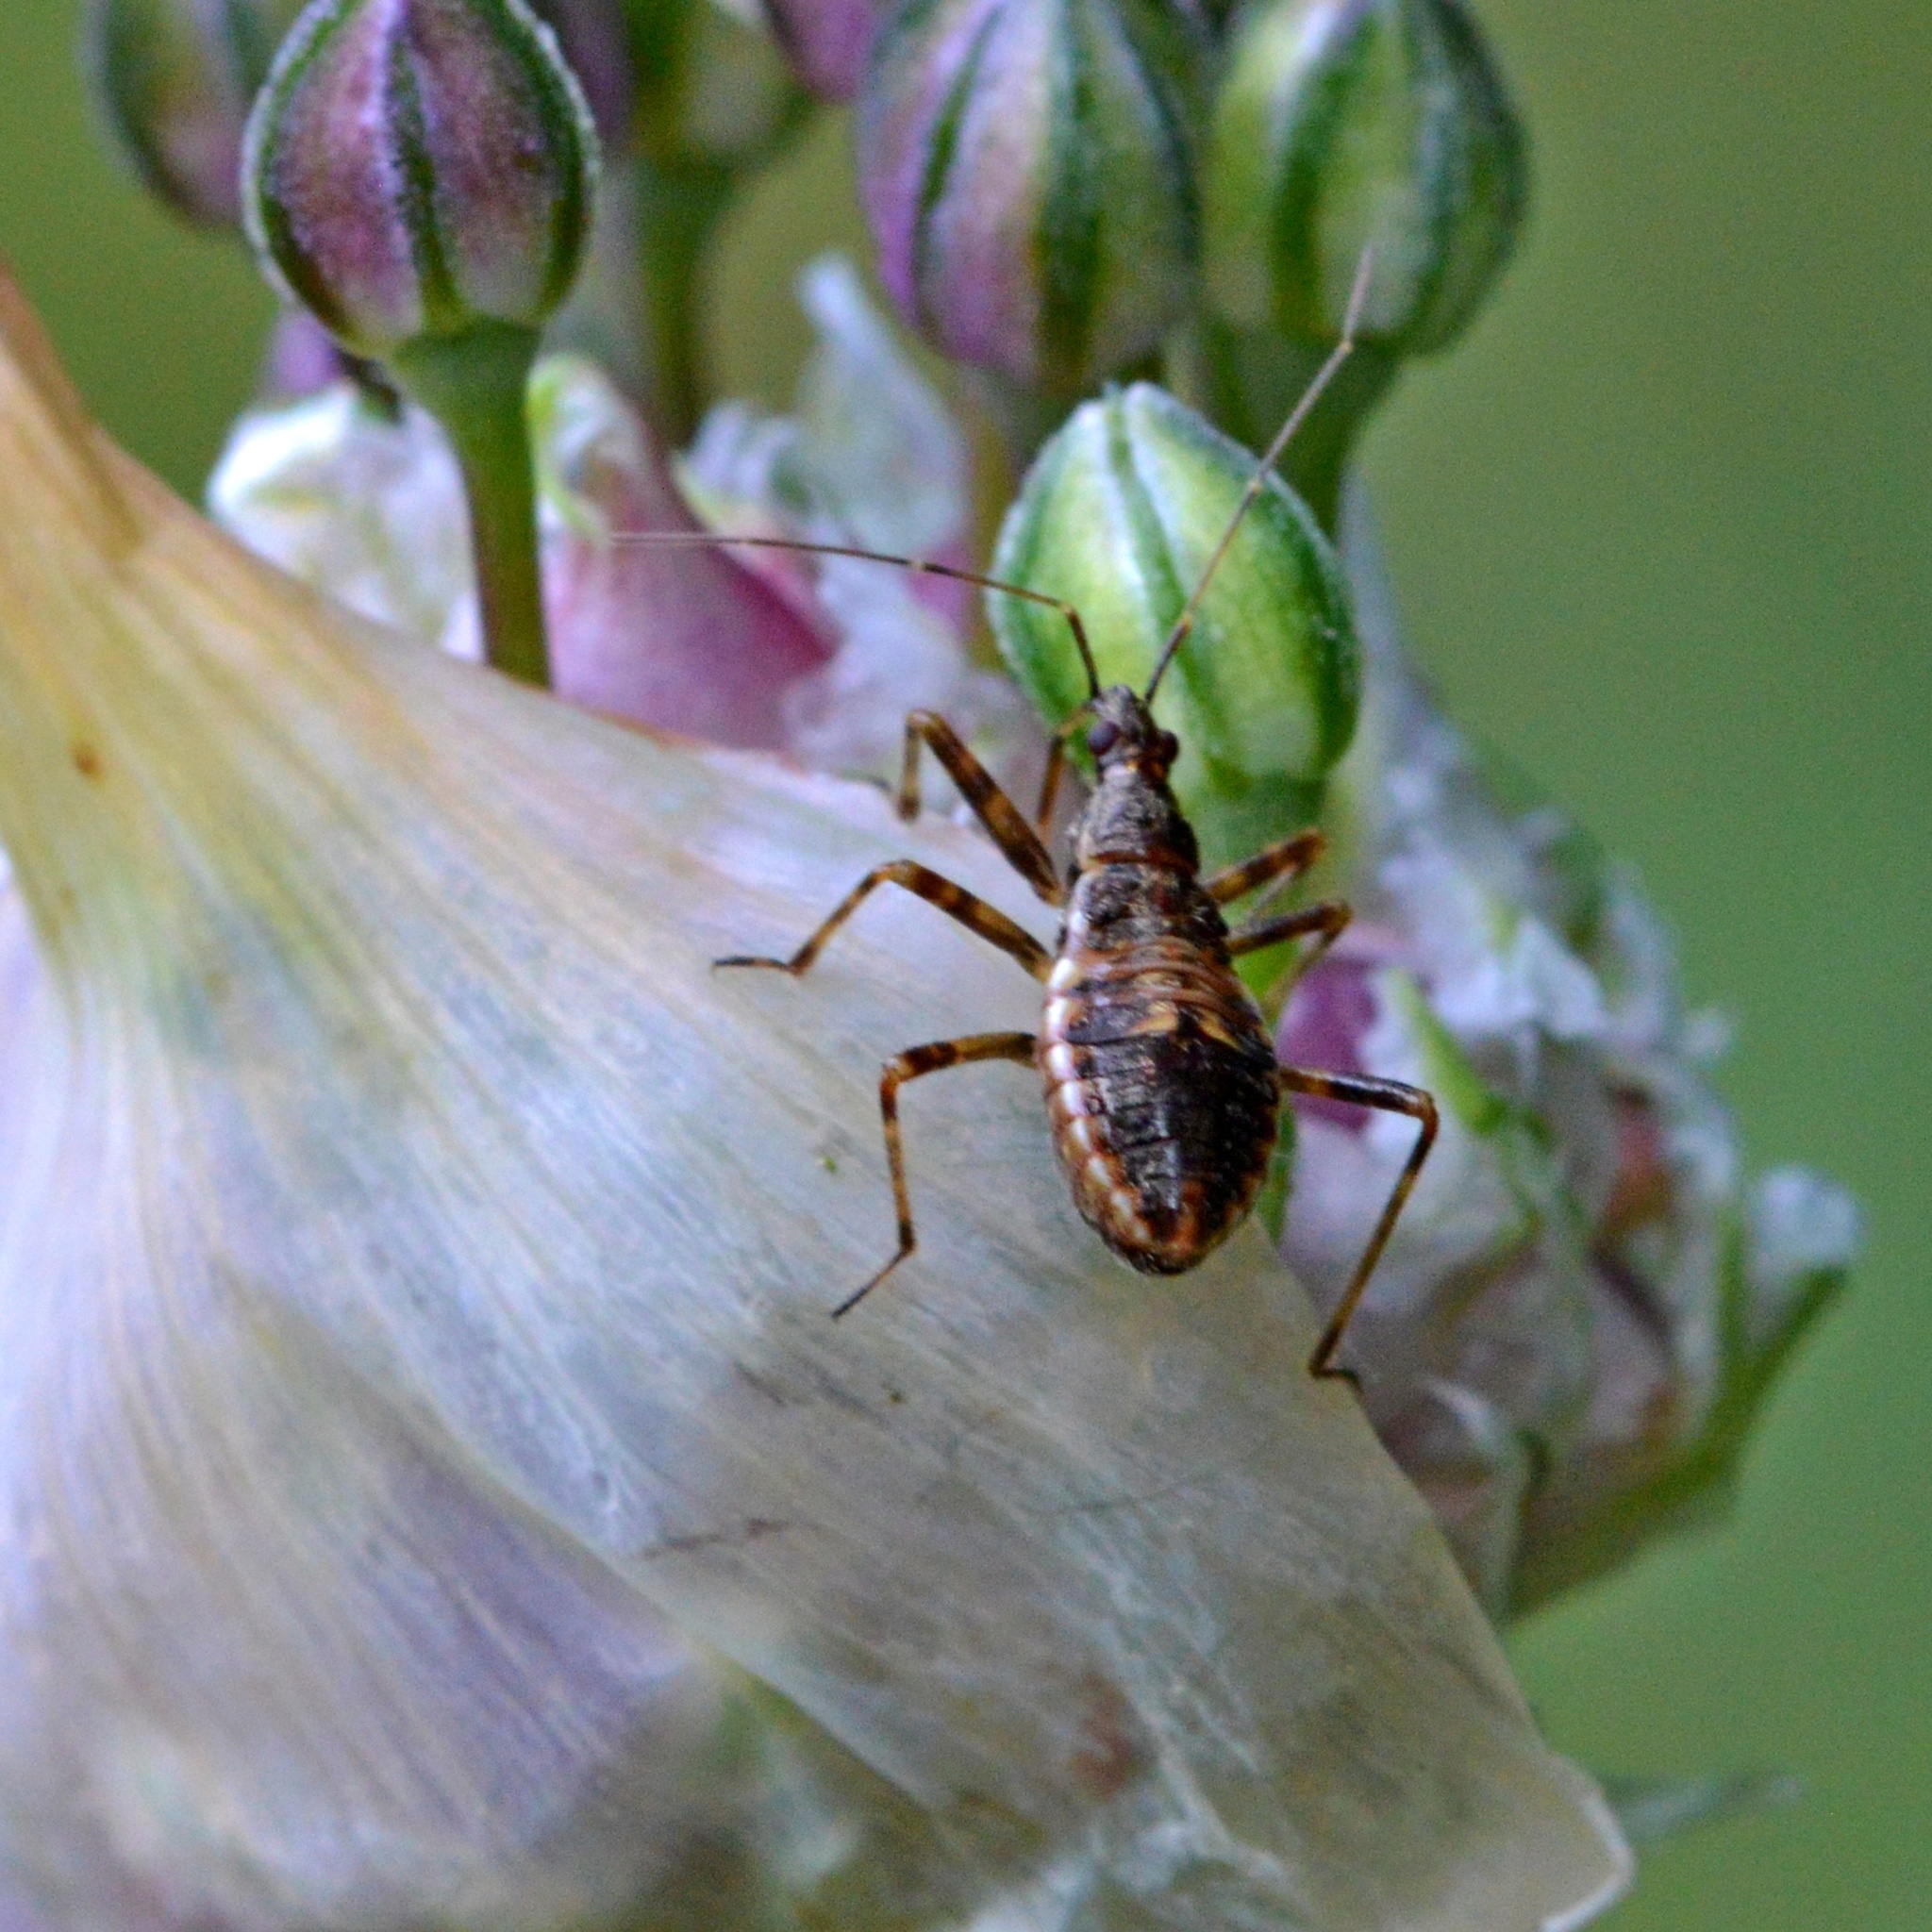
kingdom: Animalia
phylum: Arthropoda
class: Insecta
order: Hemiptera
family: Nabidae
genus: Himacerus
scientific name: Himacerus apterus
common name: Tree damsel bug
